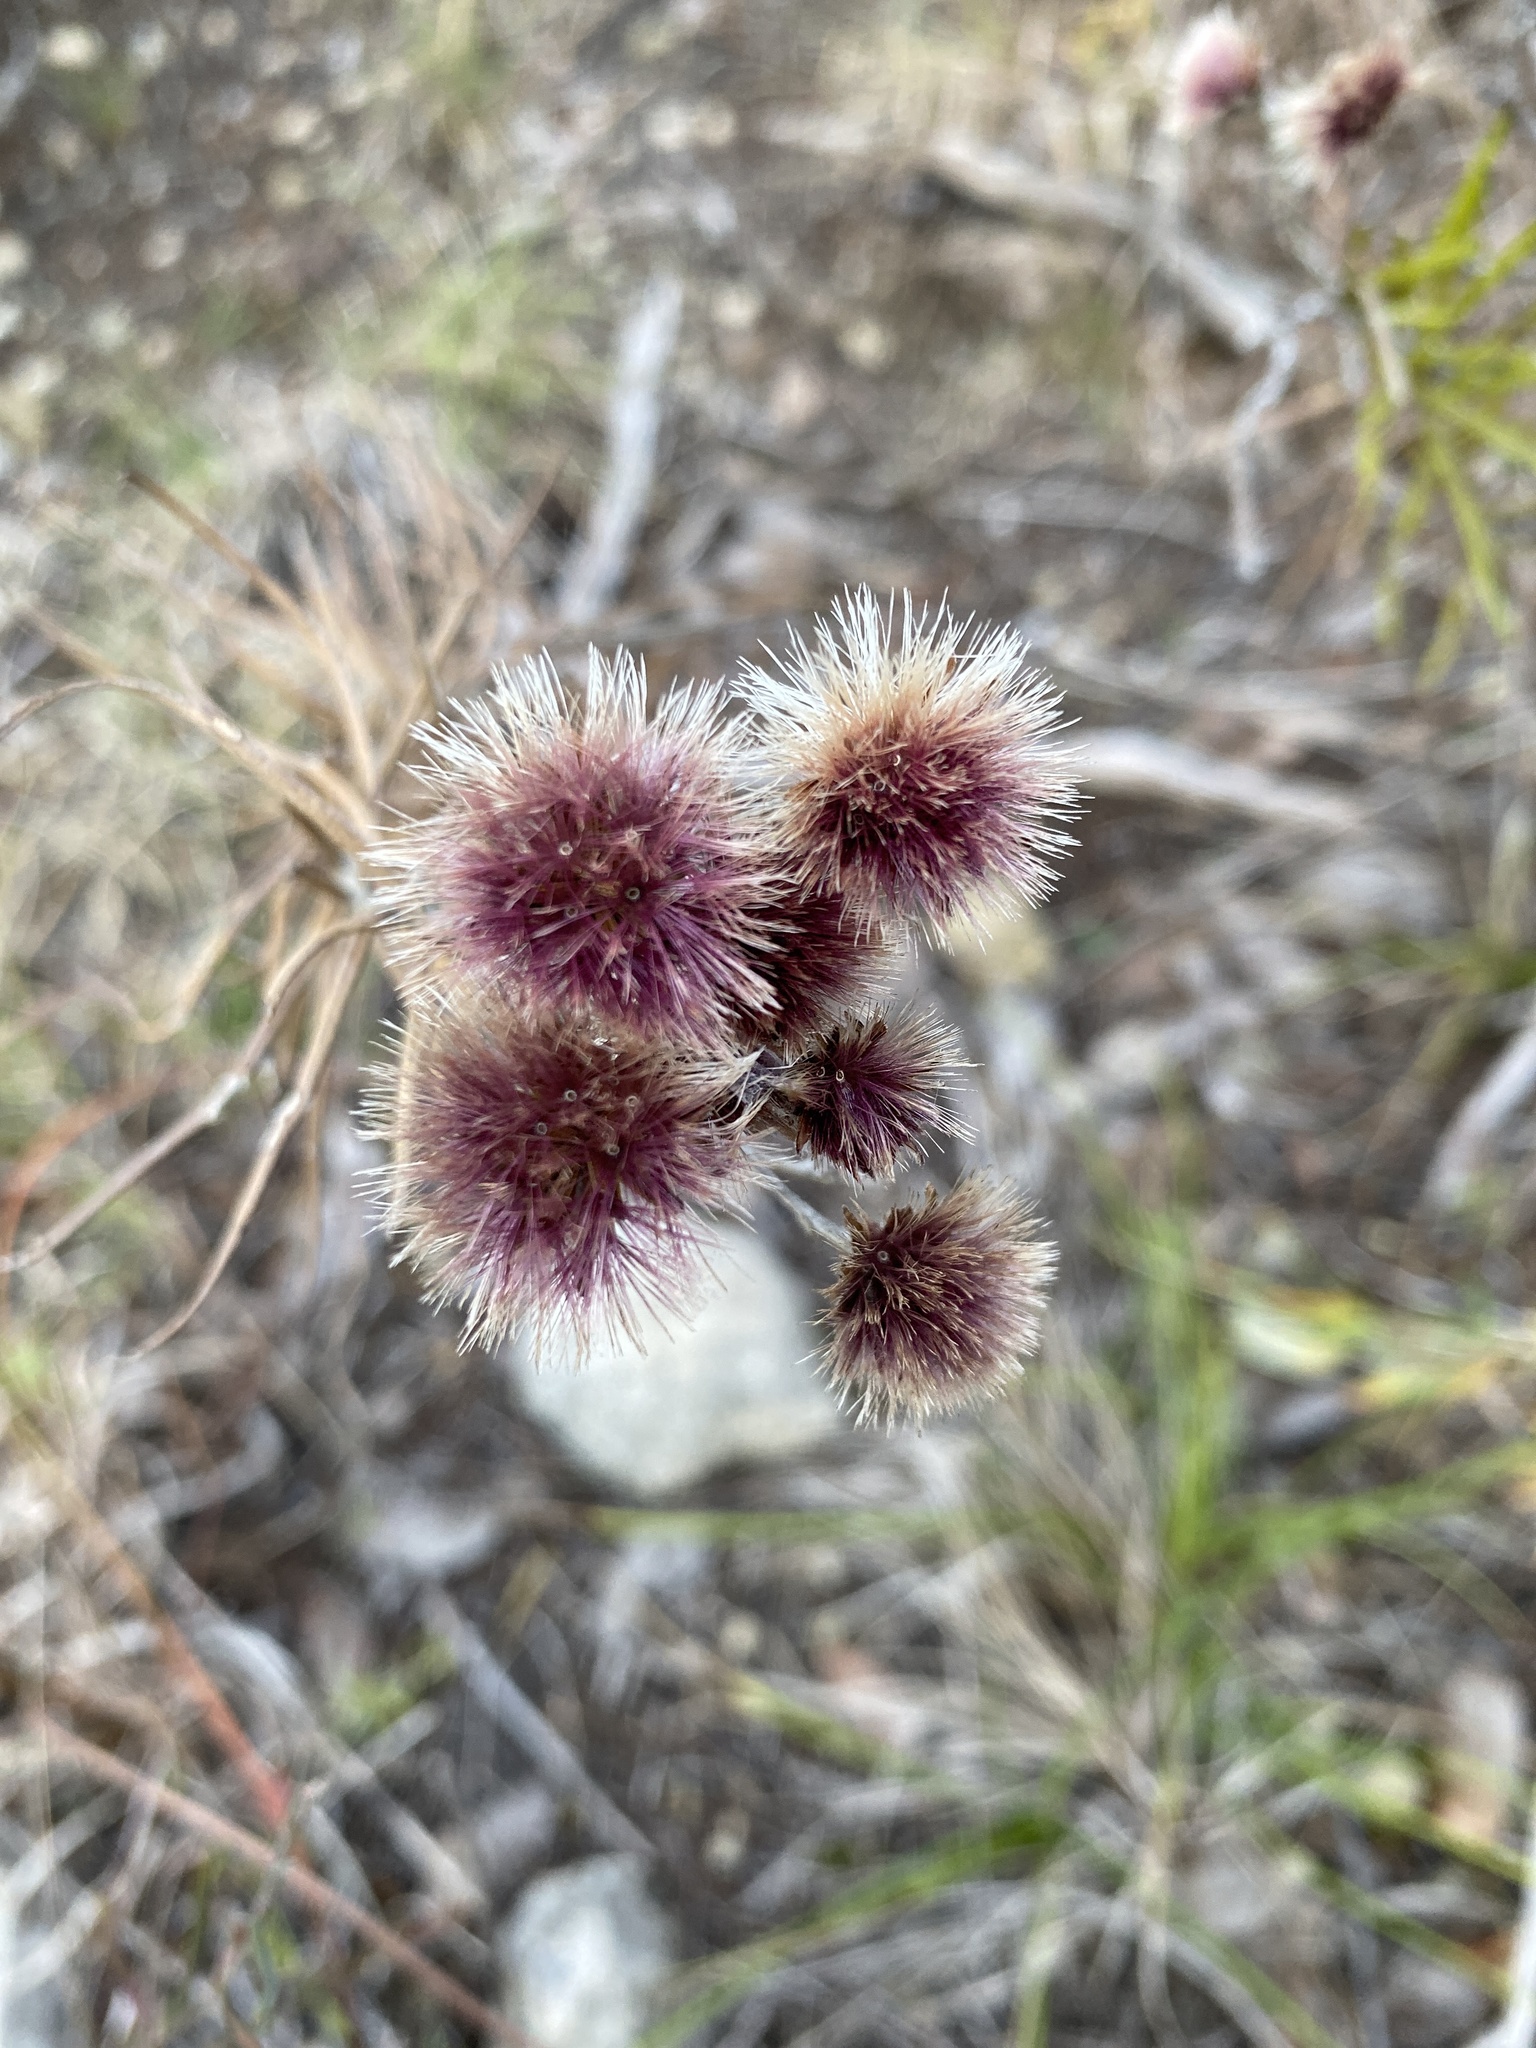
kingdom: Plantae
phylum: Tracheophyta
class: Magnoliopsida
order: Asterales
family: Asteraceae
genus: Vernonia
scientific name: Vernonia lindheimeri
